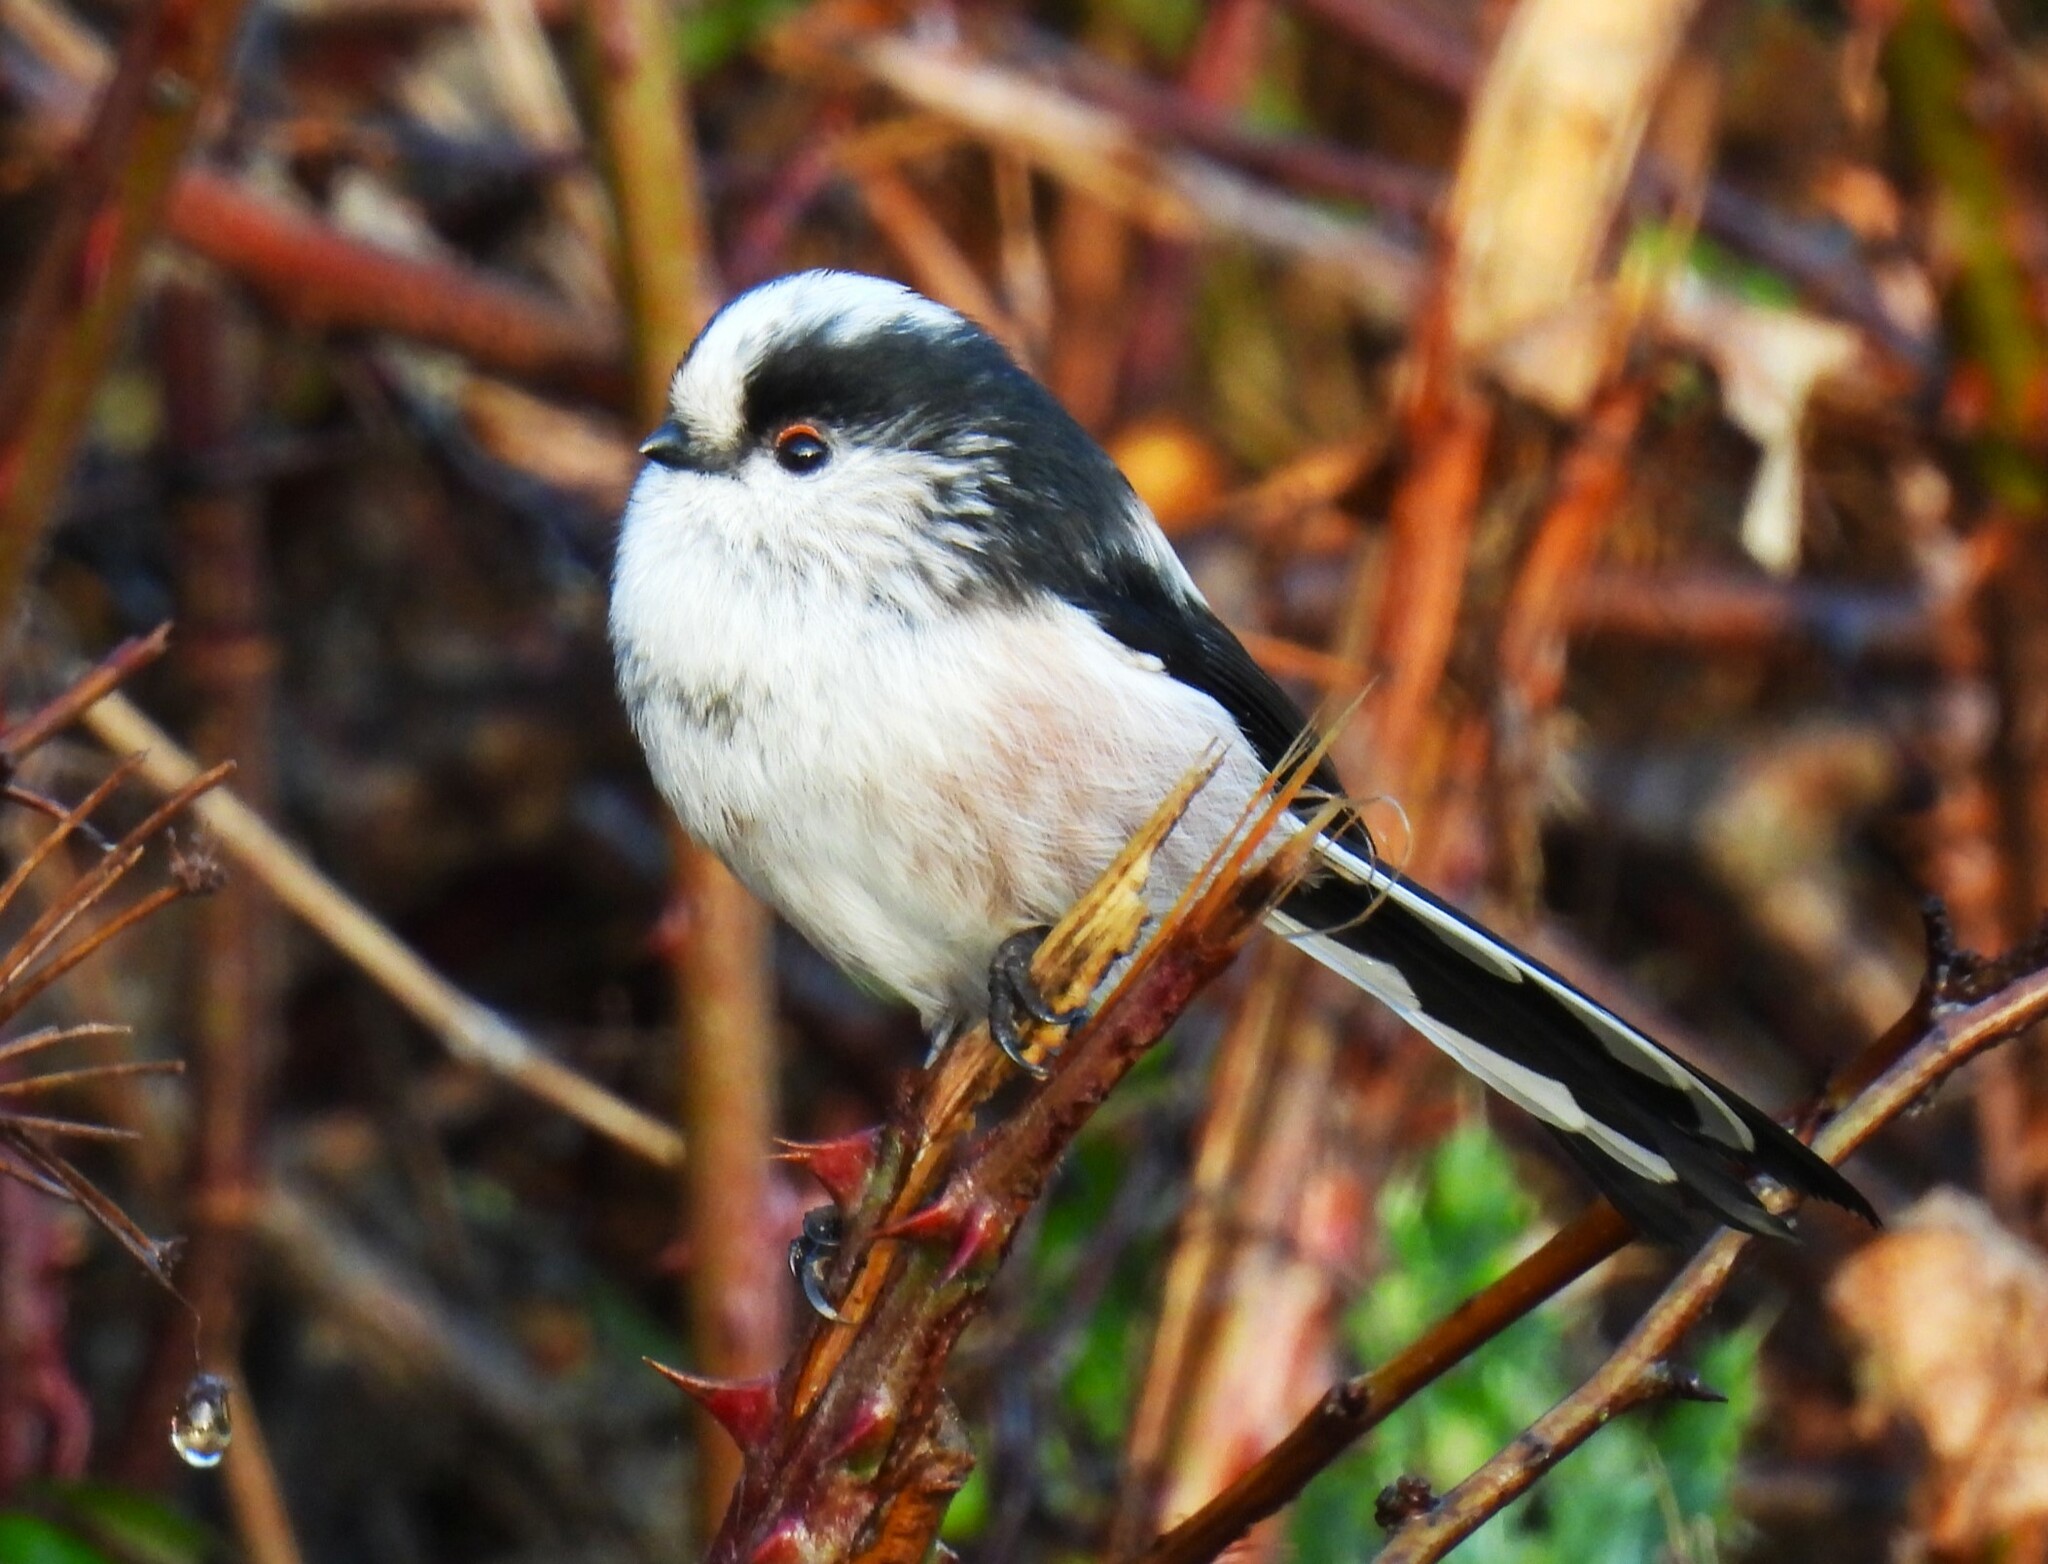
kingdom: Animalia
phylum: Chordata
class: Aves
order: Passeriformes
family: Aegithalidae
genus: Aegithalos
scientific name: Aegithalos caudatus
